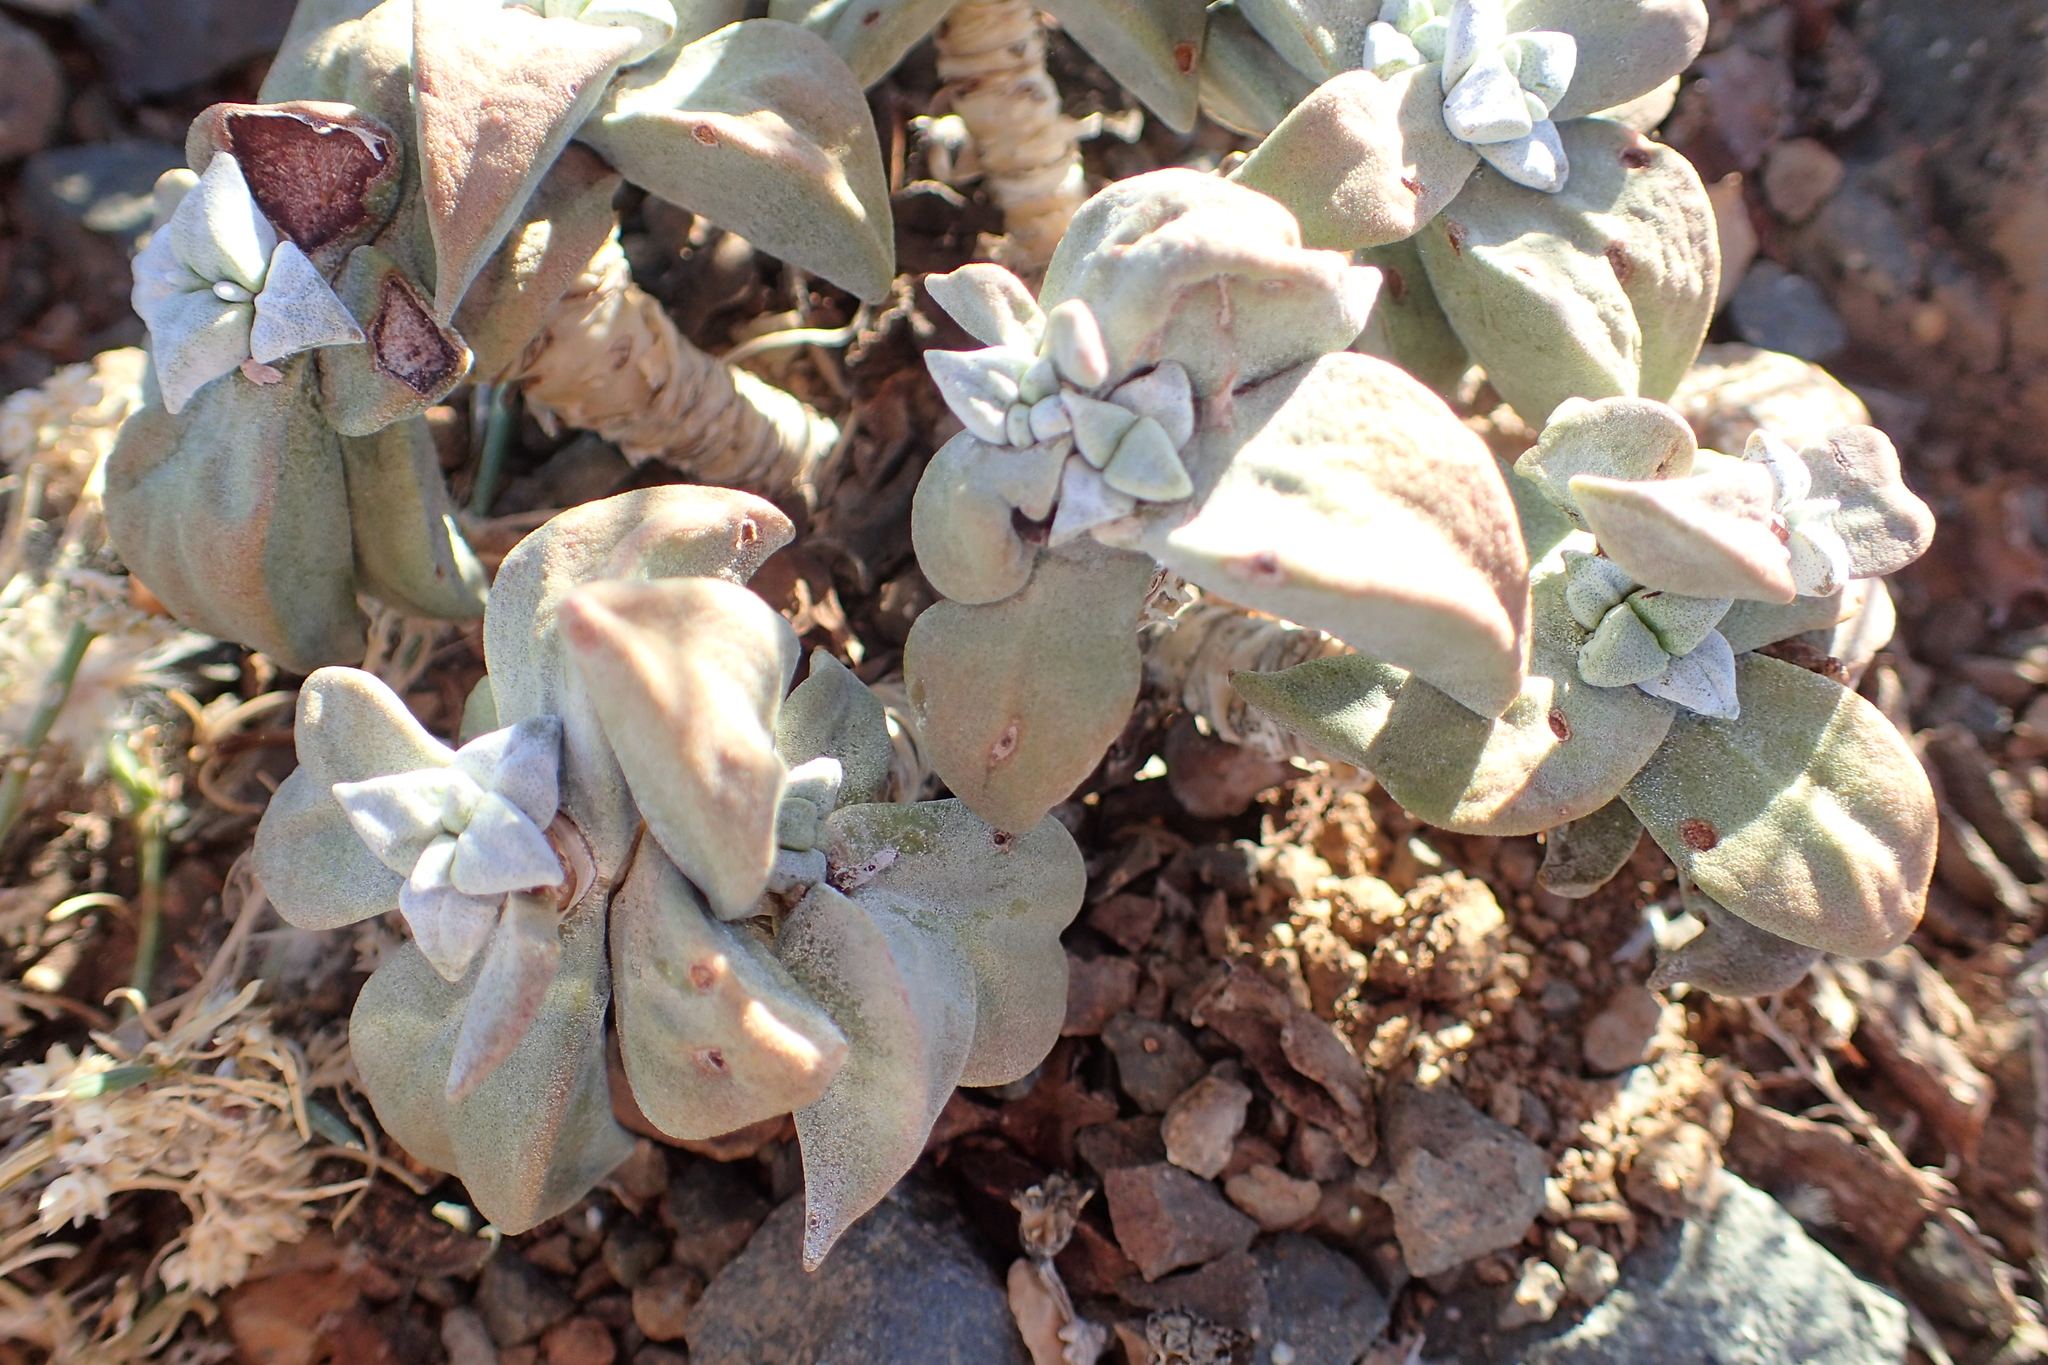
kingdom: Plantae
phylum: Tracheophyta
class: Magnoliopsida
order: Saxifragales
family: Crassulaceae
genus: Crassula
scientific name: Crassula deltoidea
